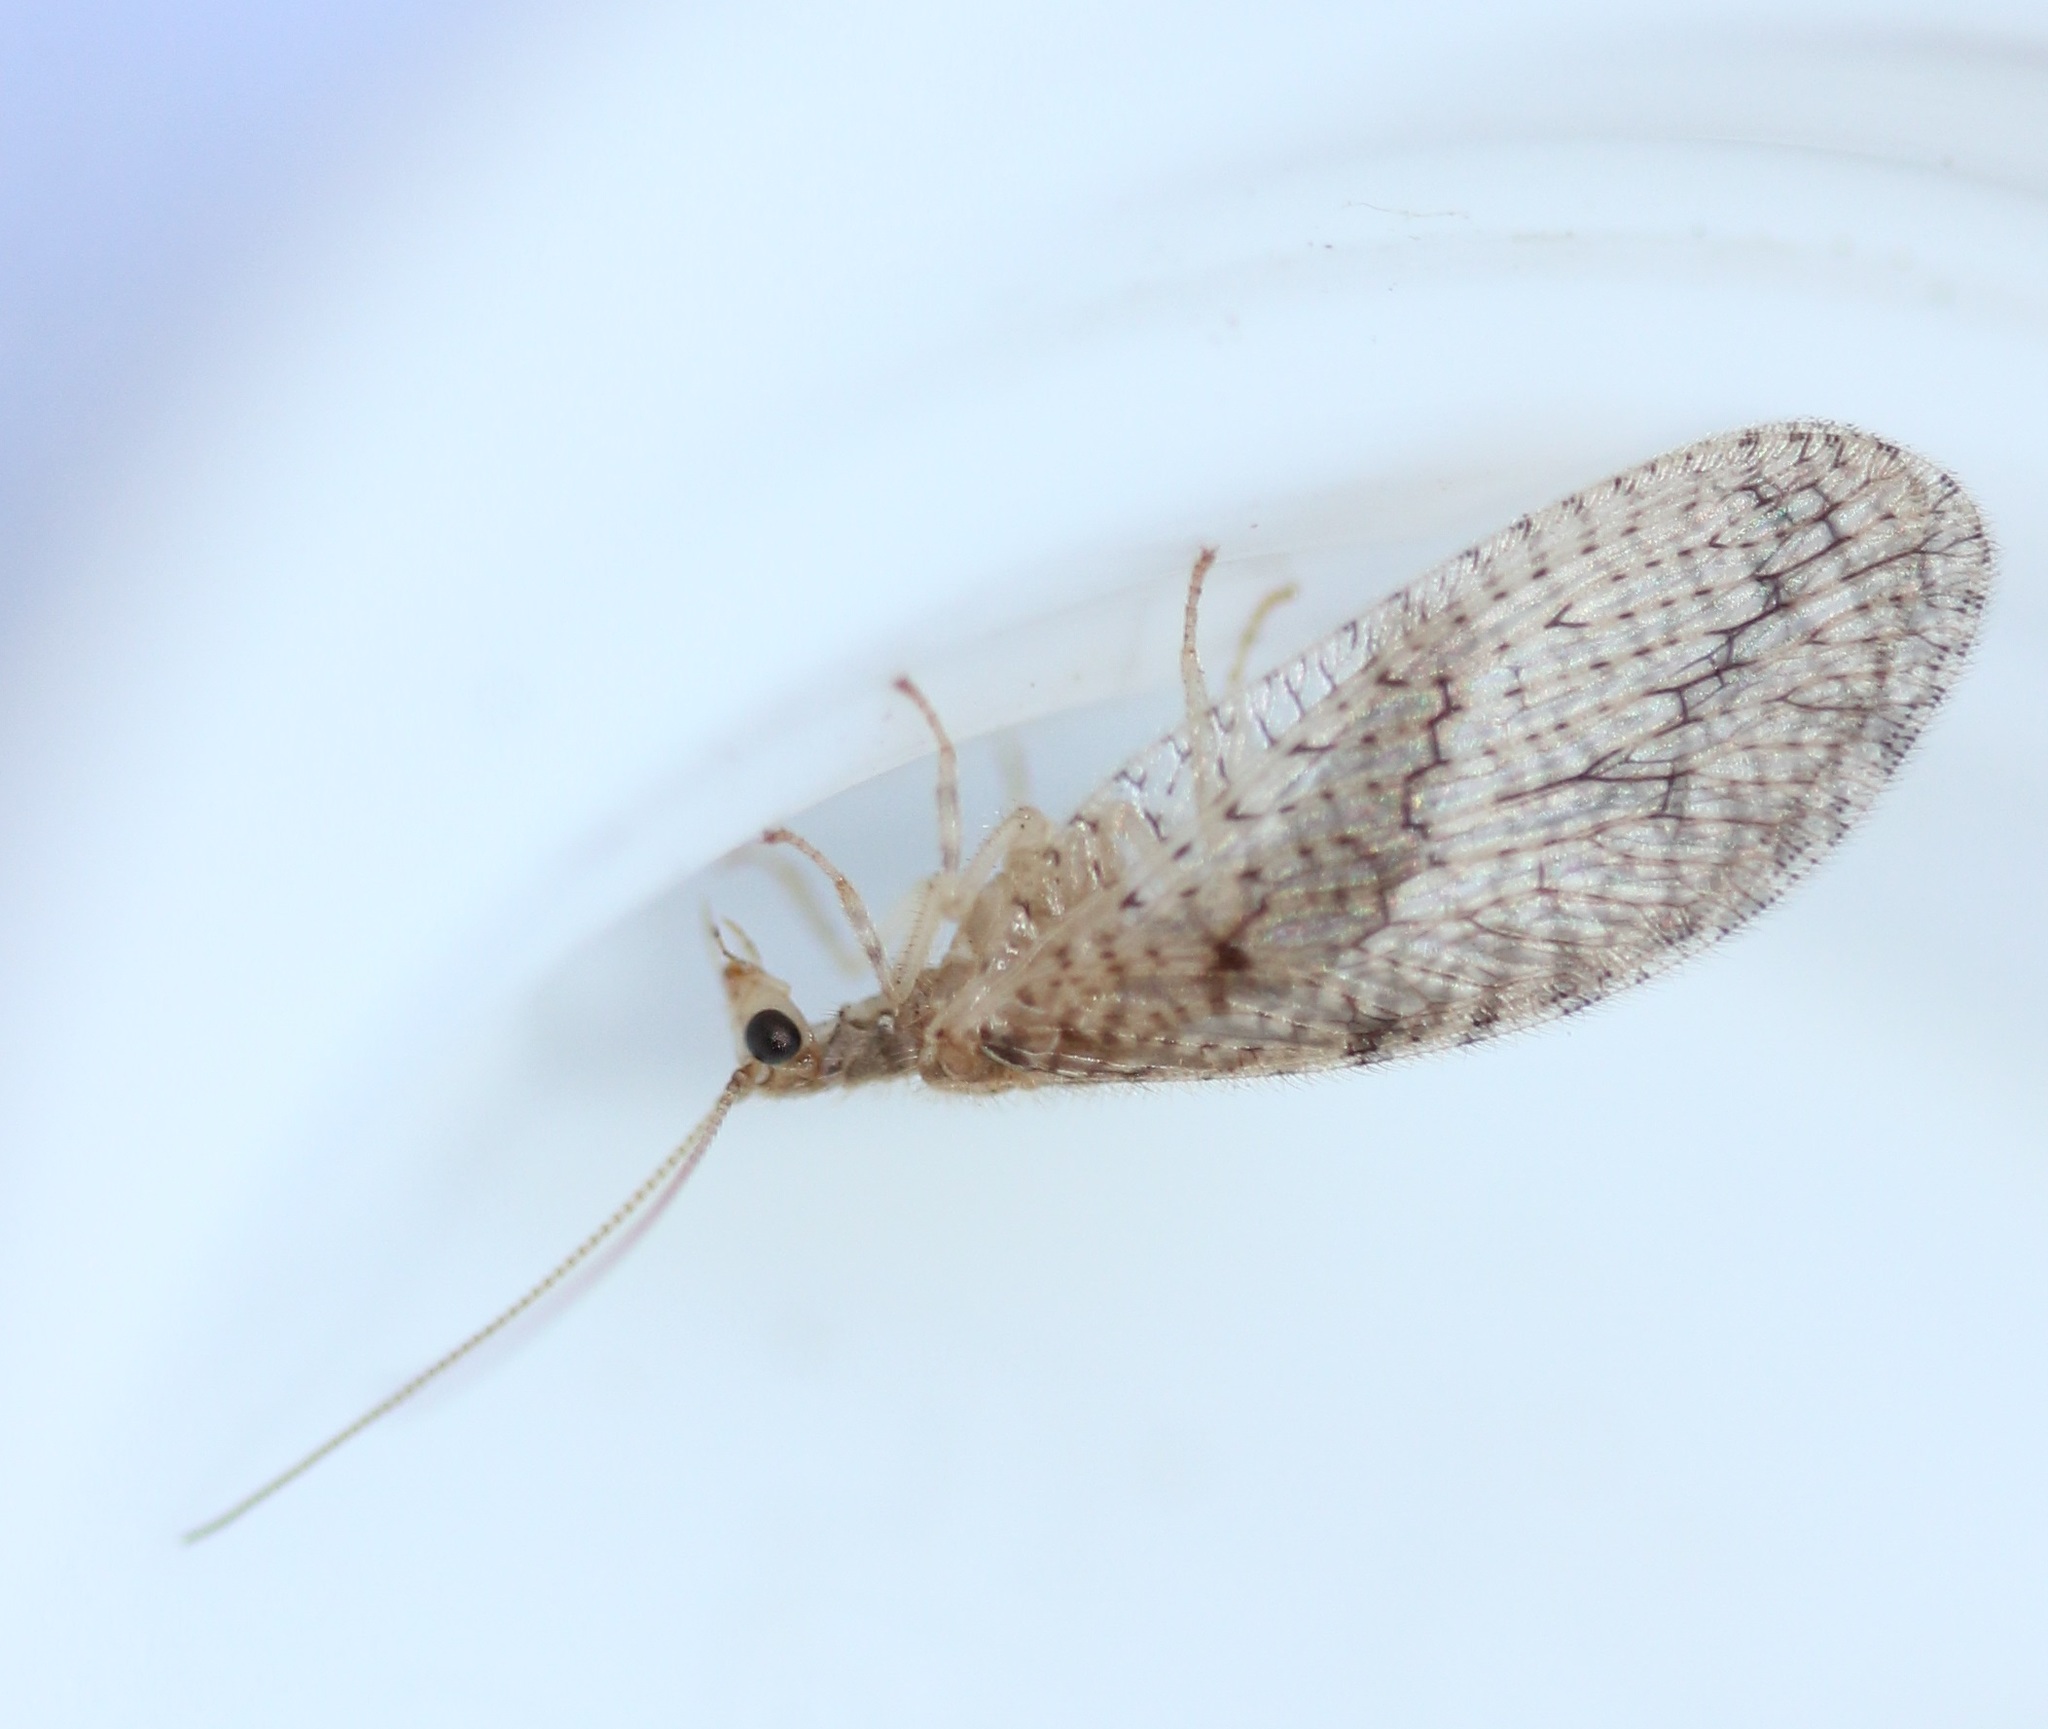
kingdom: Animalia
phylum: Arthropoda
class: Insecta
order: Neuroptera
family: Hemerobiidae
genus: Micromus
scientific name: Micromus posticus
